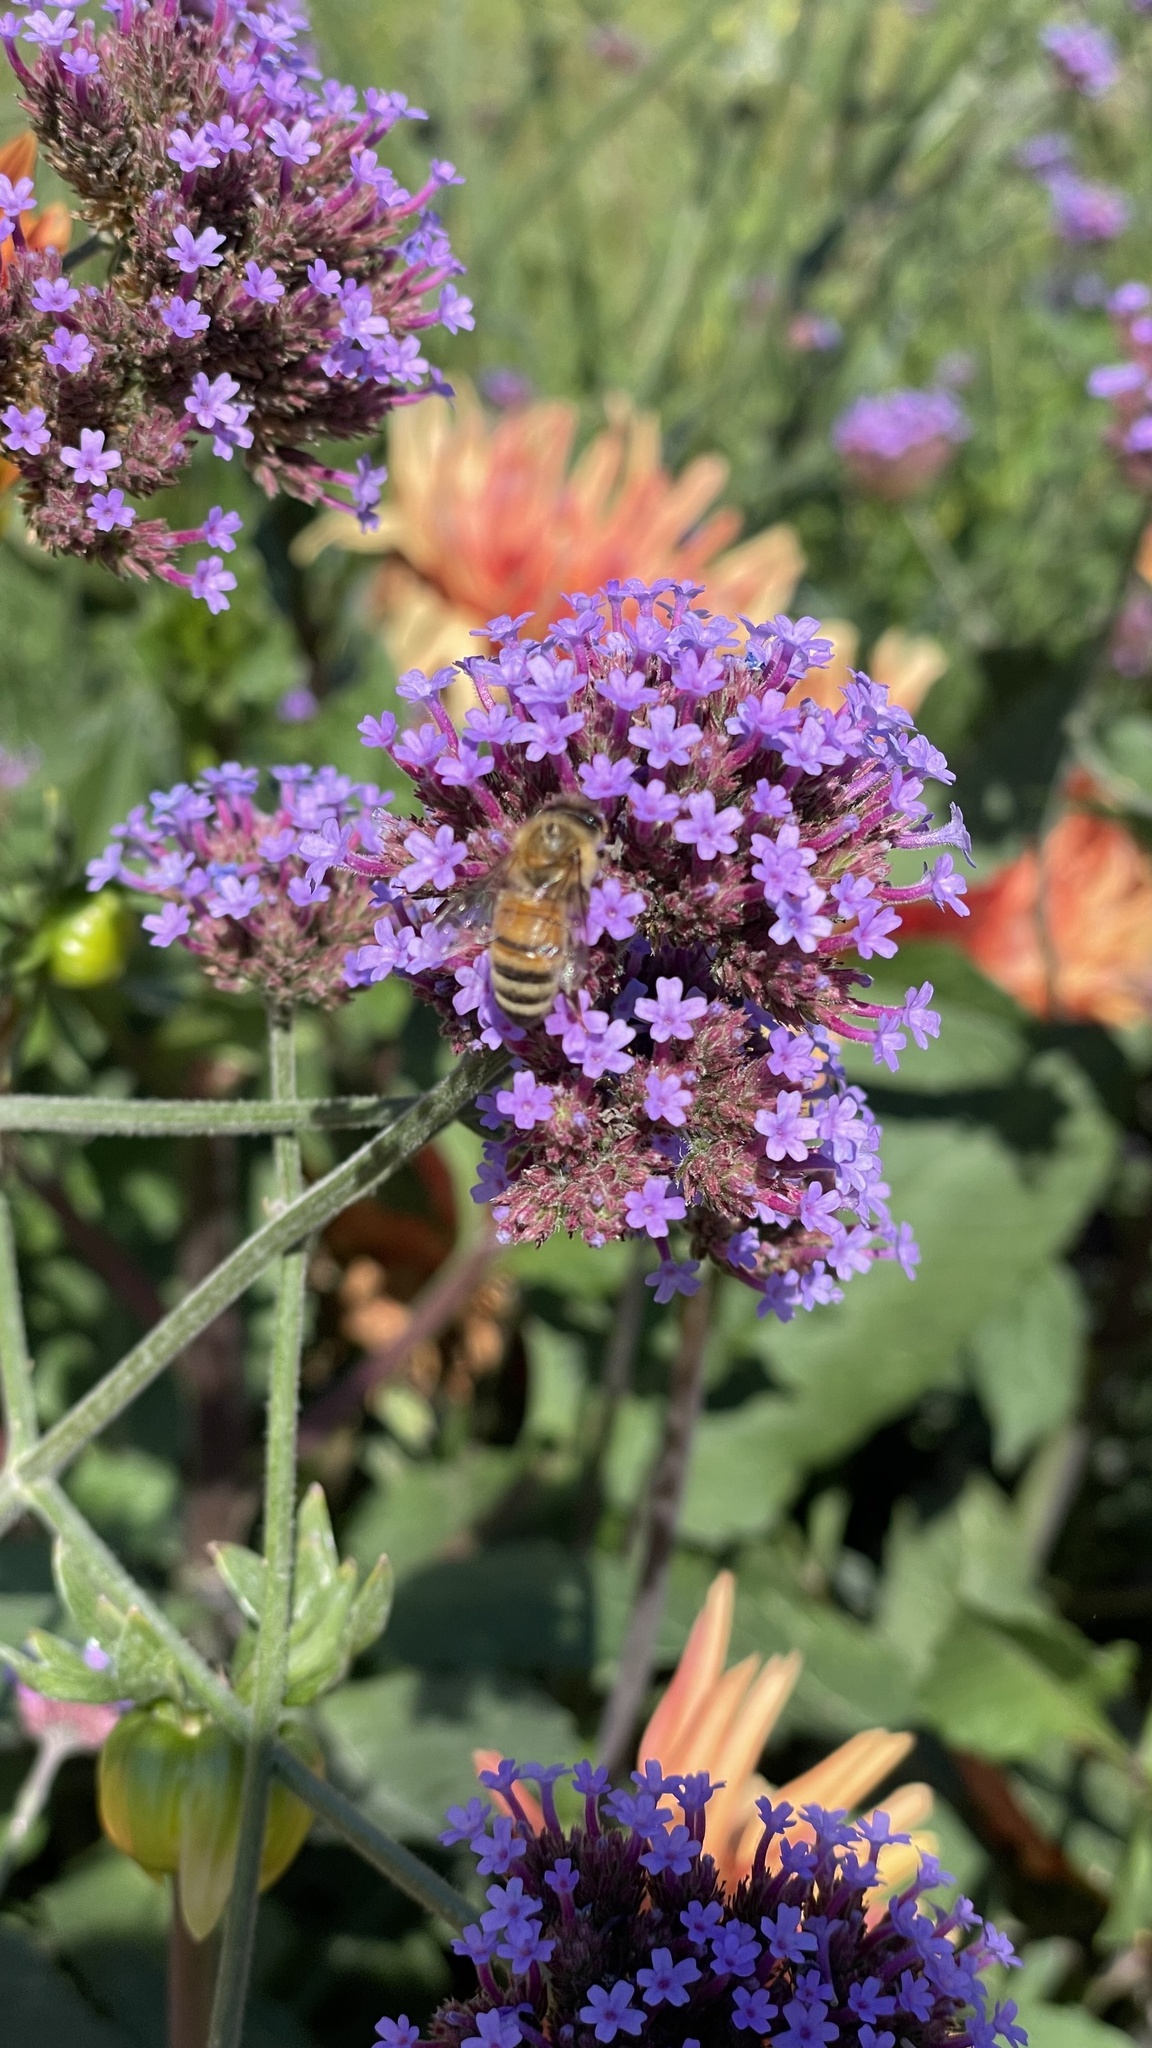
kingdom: Animalia
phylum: Arthropoda
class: Insecta
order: Hymenoptera
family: Apidae
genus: Apis
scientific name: Apis mellifera
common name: Honey bee
